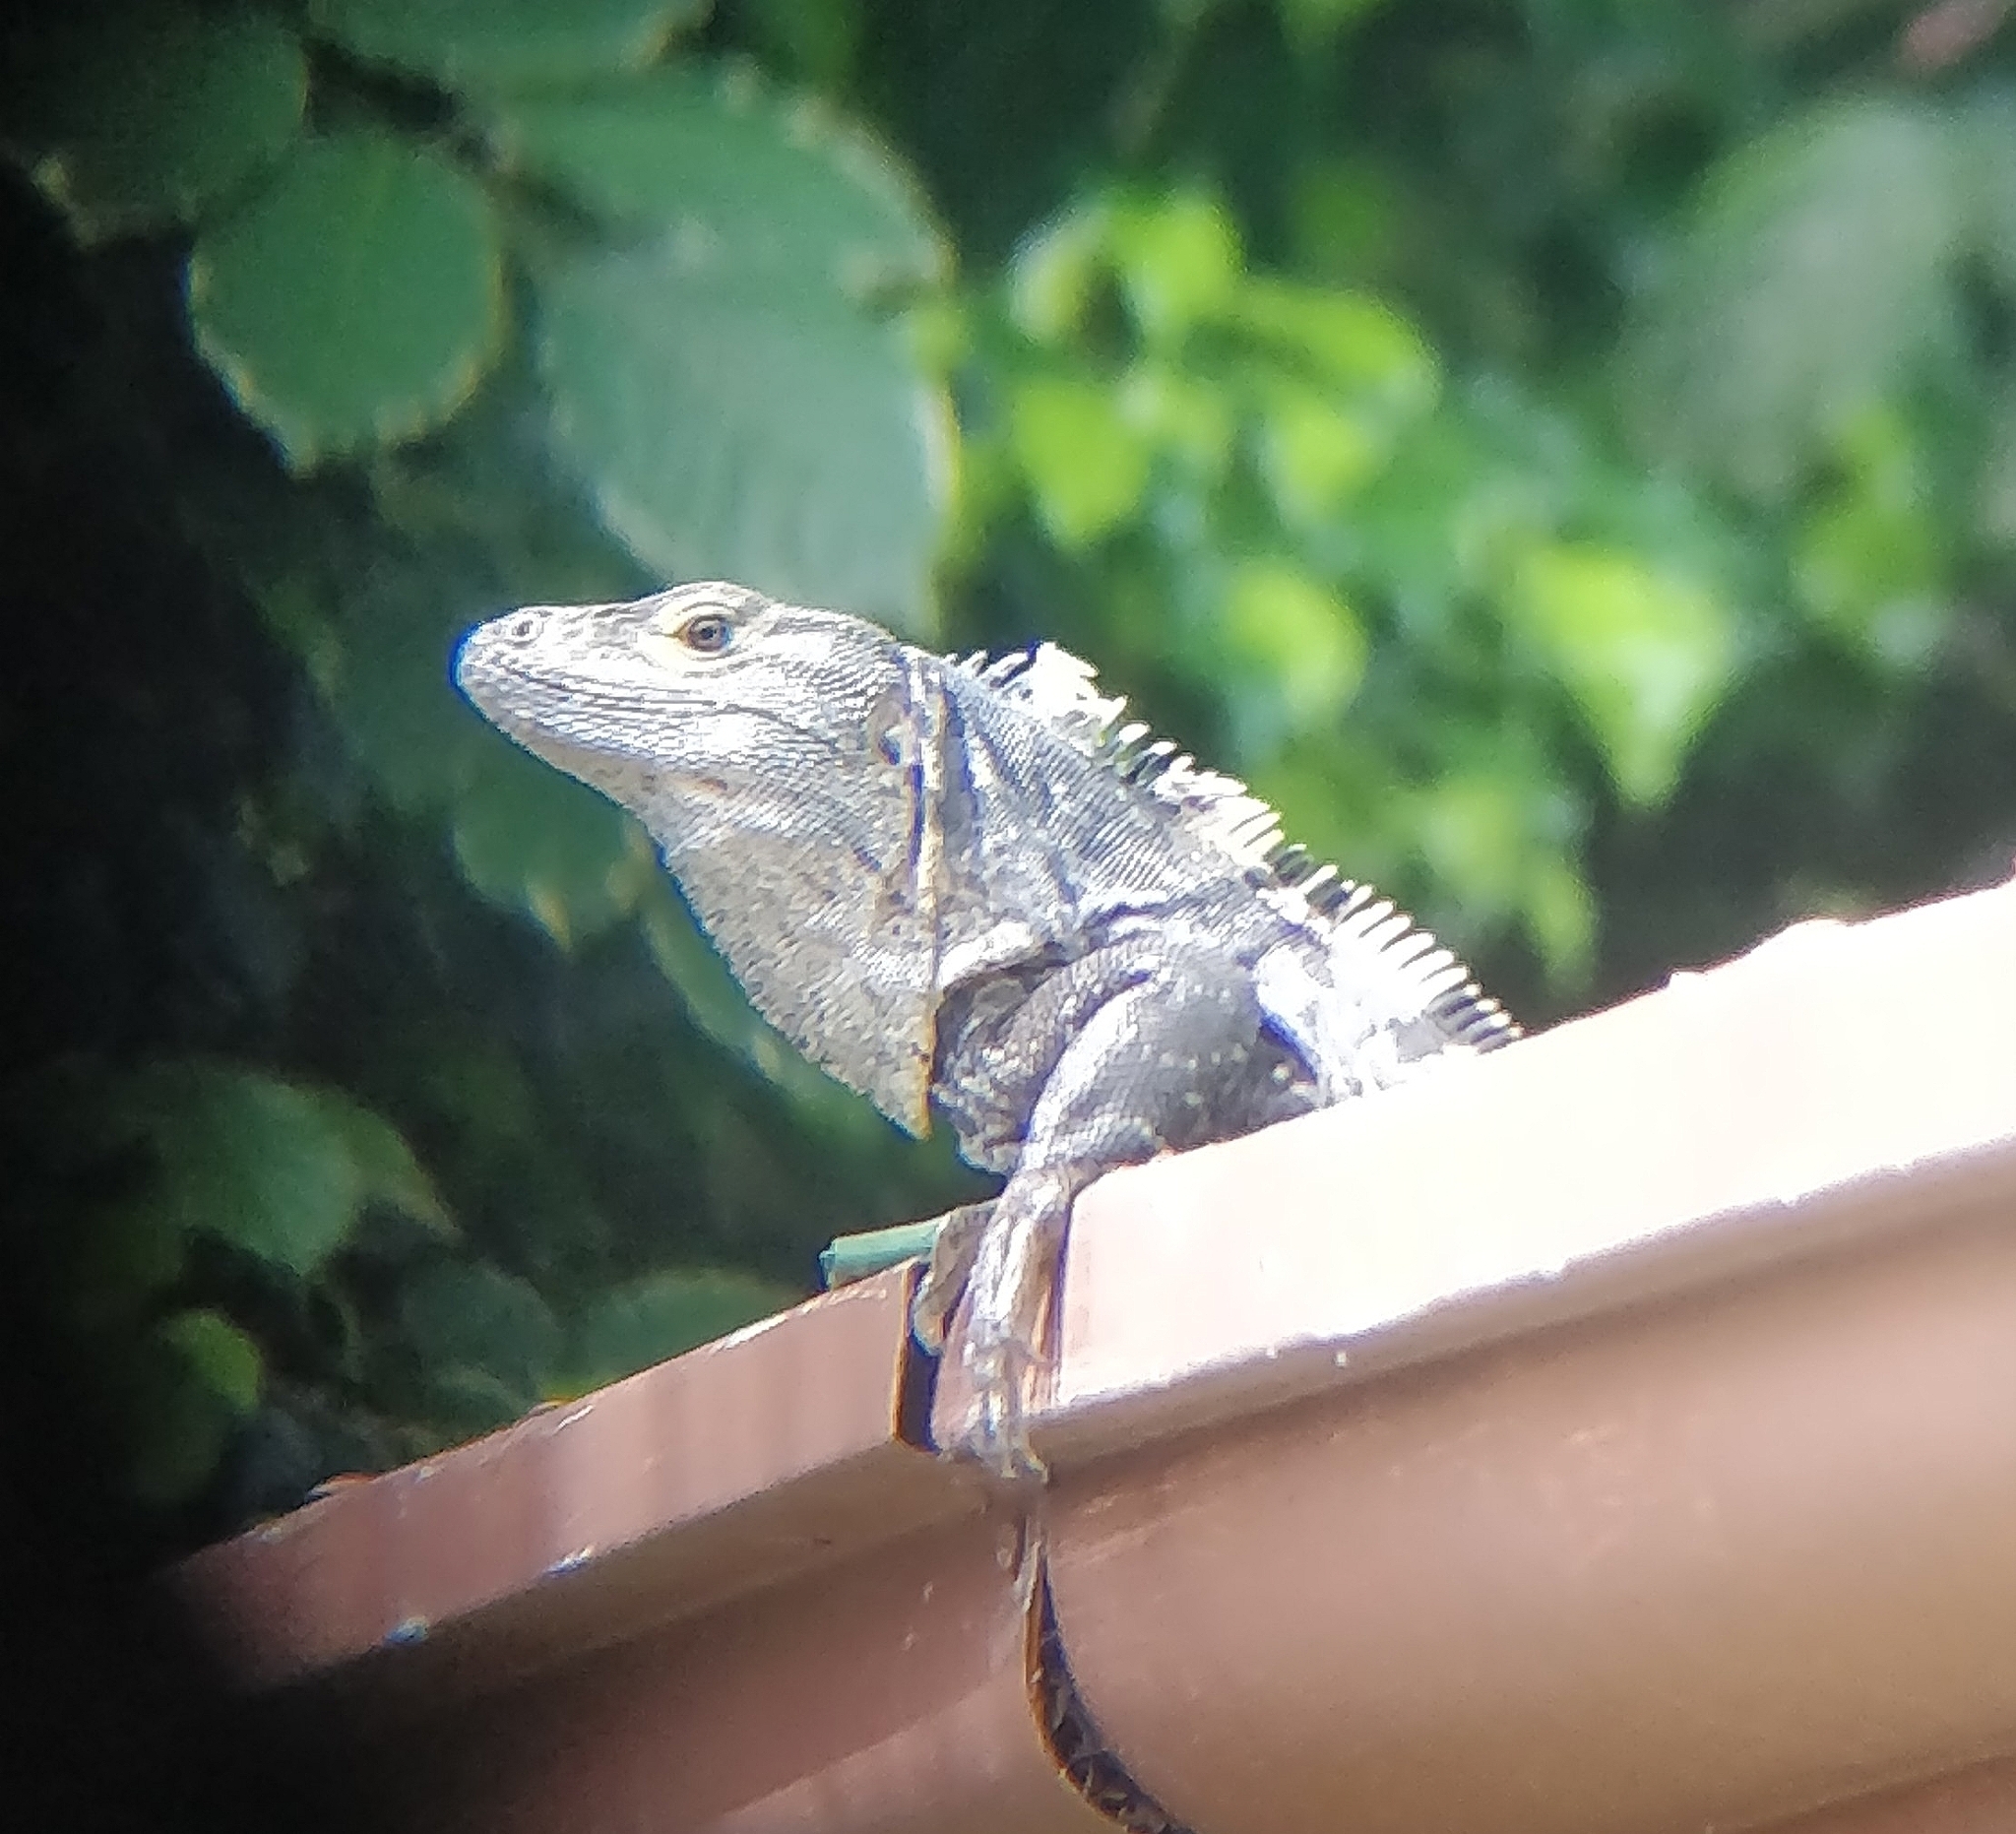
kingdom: Animalia
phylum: Chordata
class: Squamata
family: Iguanidae
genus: Ctenosaura
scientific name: Ctenosaura similis
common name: Black spiny-tailed iguana
